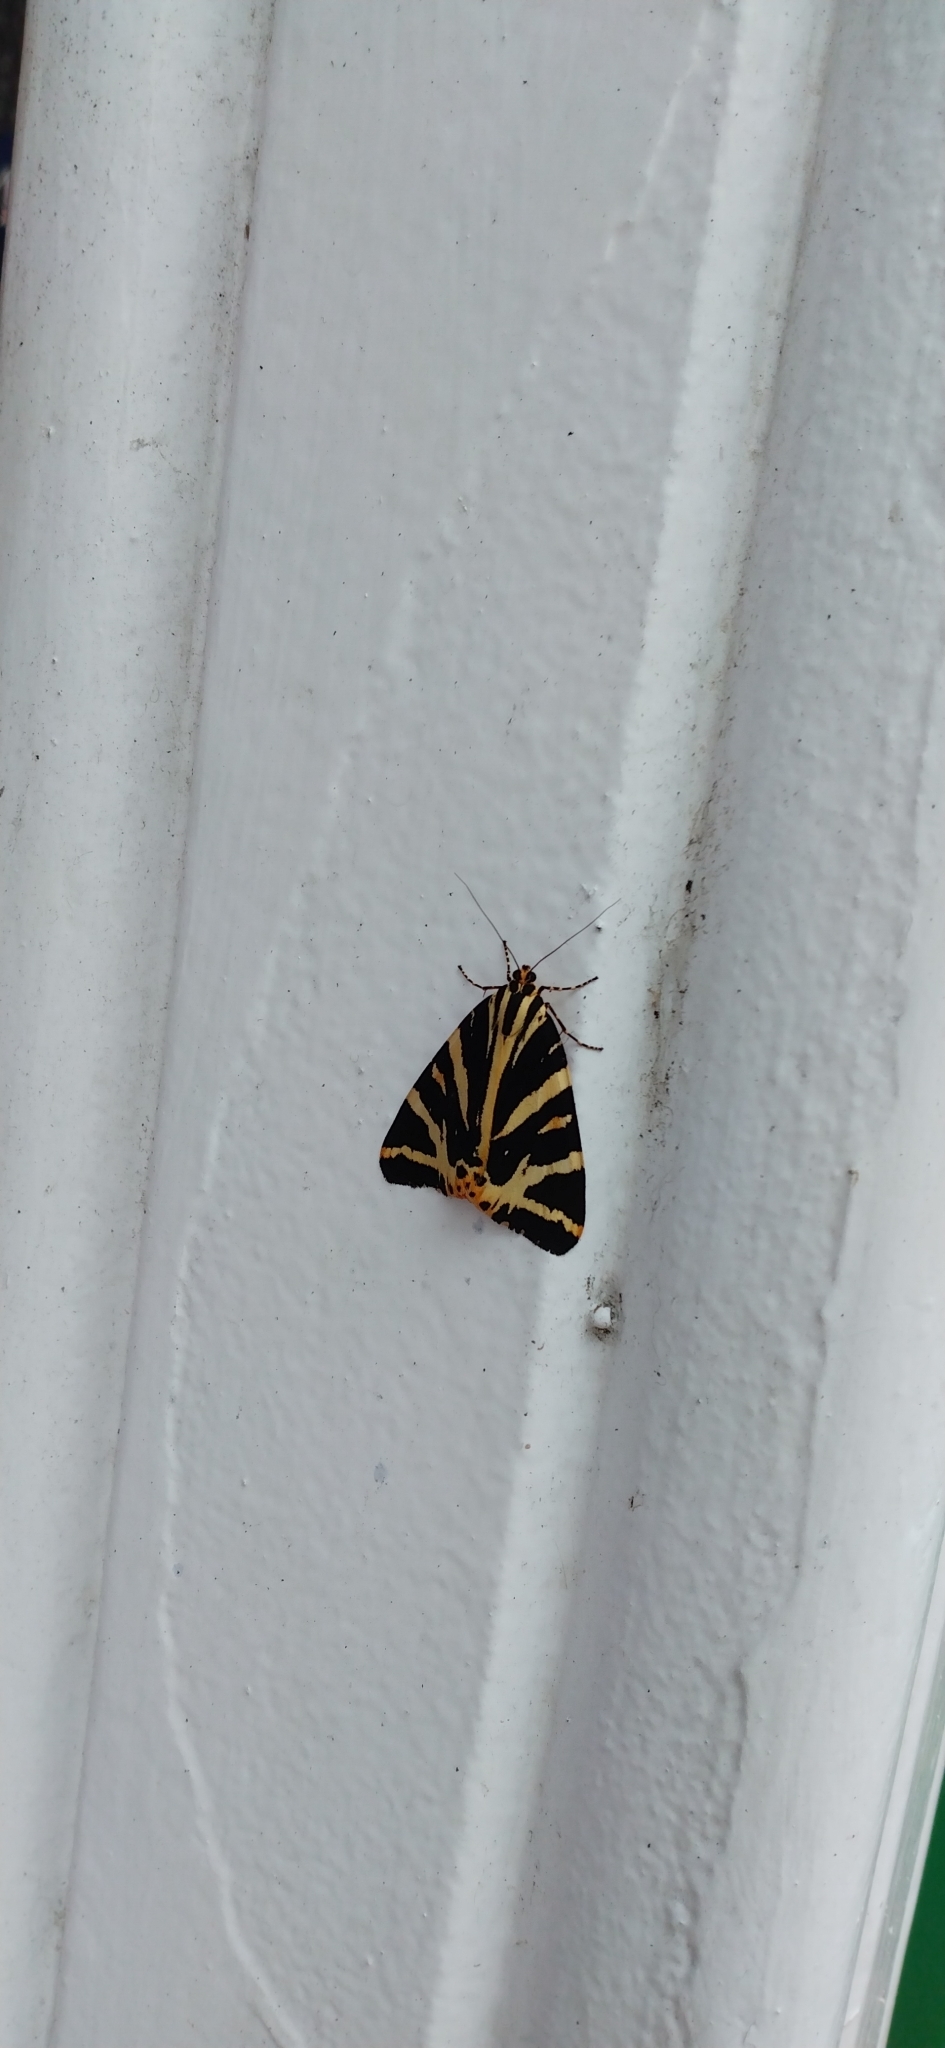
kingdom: Animalia
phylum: Arthropoda
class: Insecta
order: Lepidoptera
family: Erebidae
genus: Euplagia
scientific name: Euplagia quadripunctaria
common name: Jersey tiger
